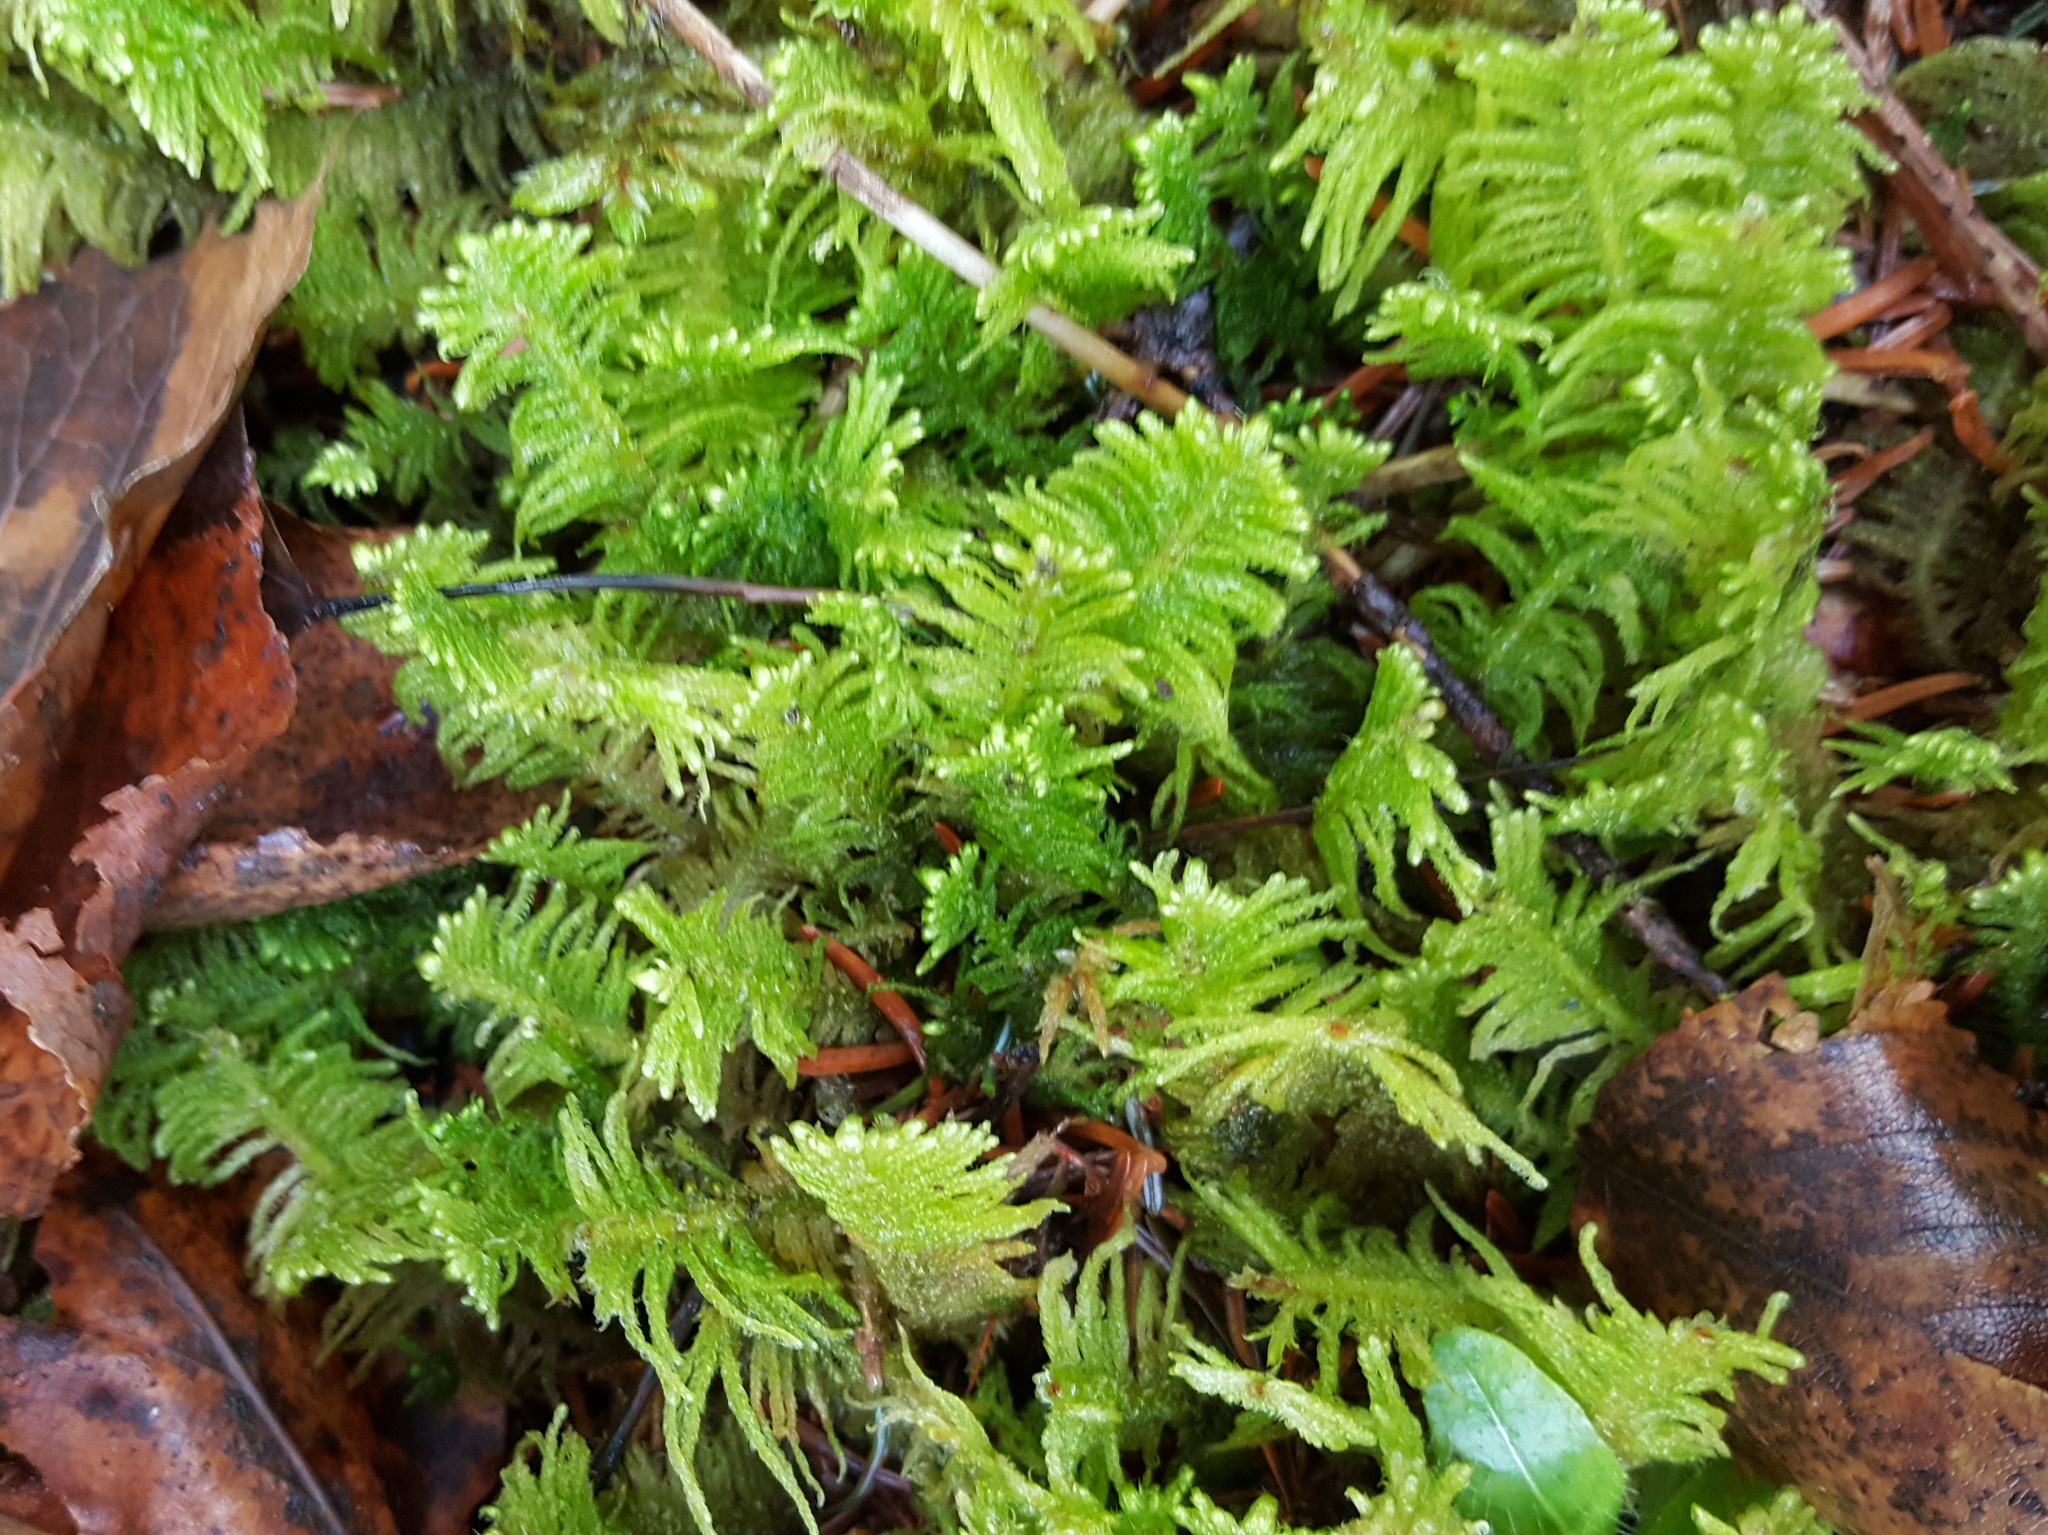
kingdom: Plantae
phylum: Bryophyta
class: Bryopsida
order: Hypnales
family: Pylaisiaceae
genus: Ptilium
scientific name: Ptilium crista-castrensis
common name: Knight's plume moss
